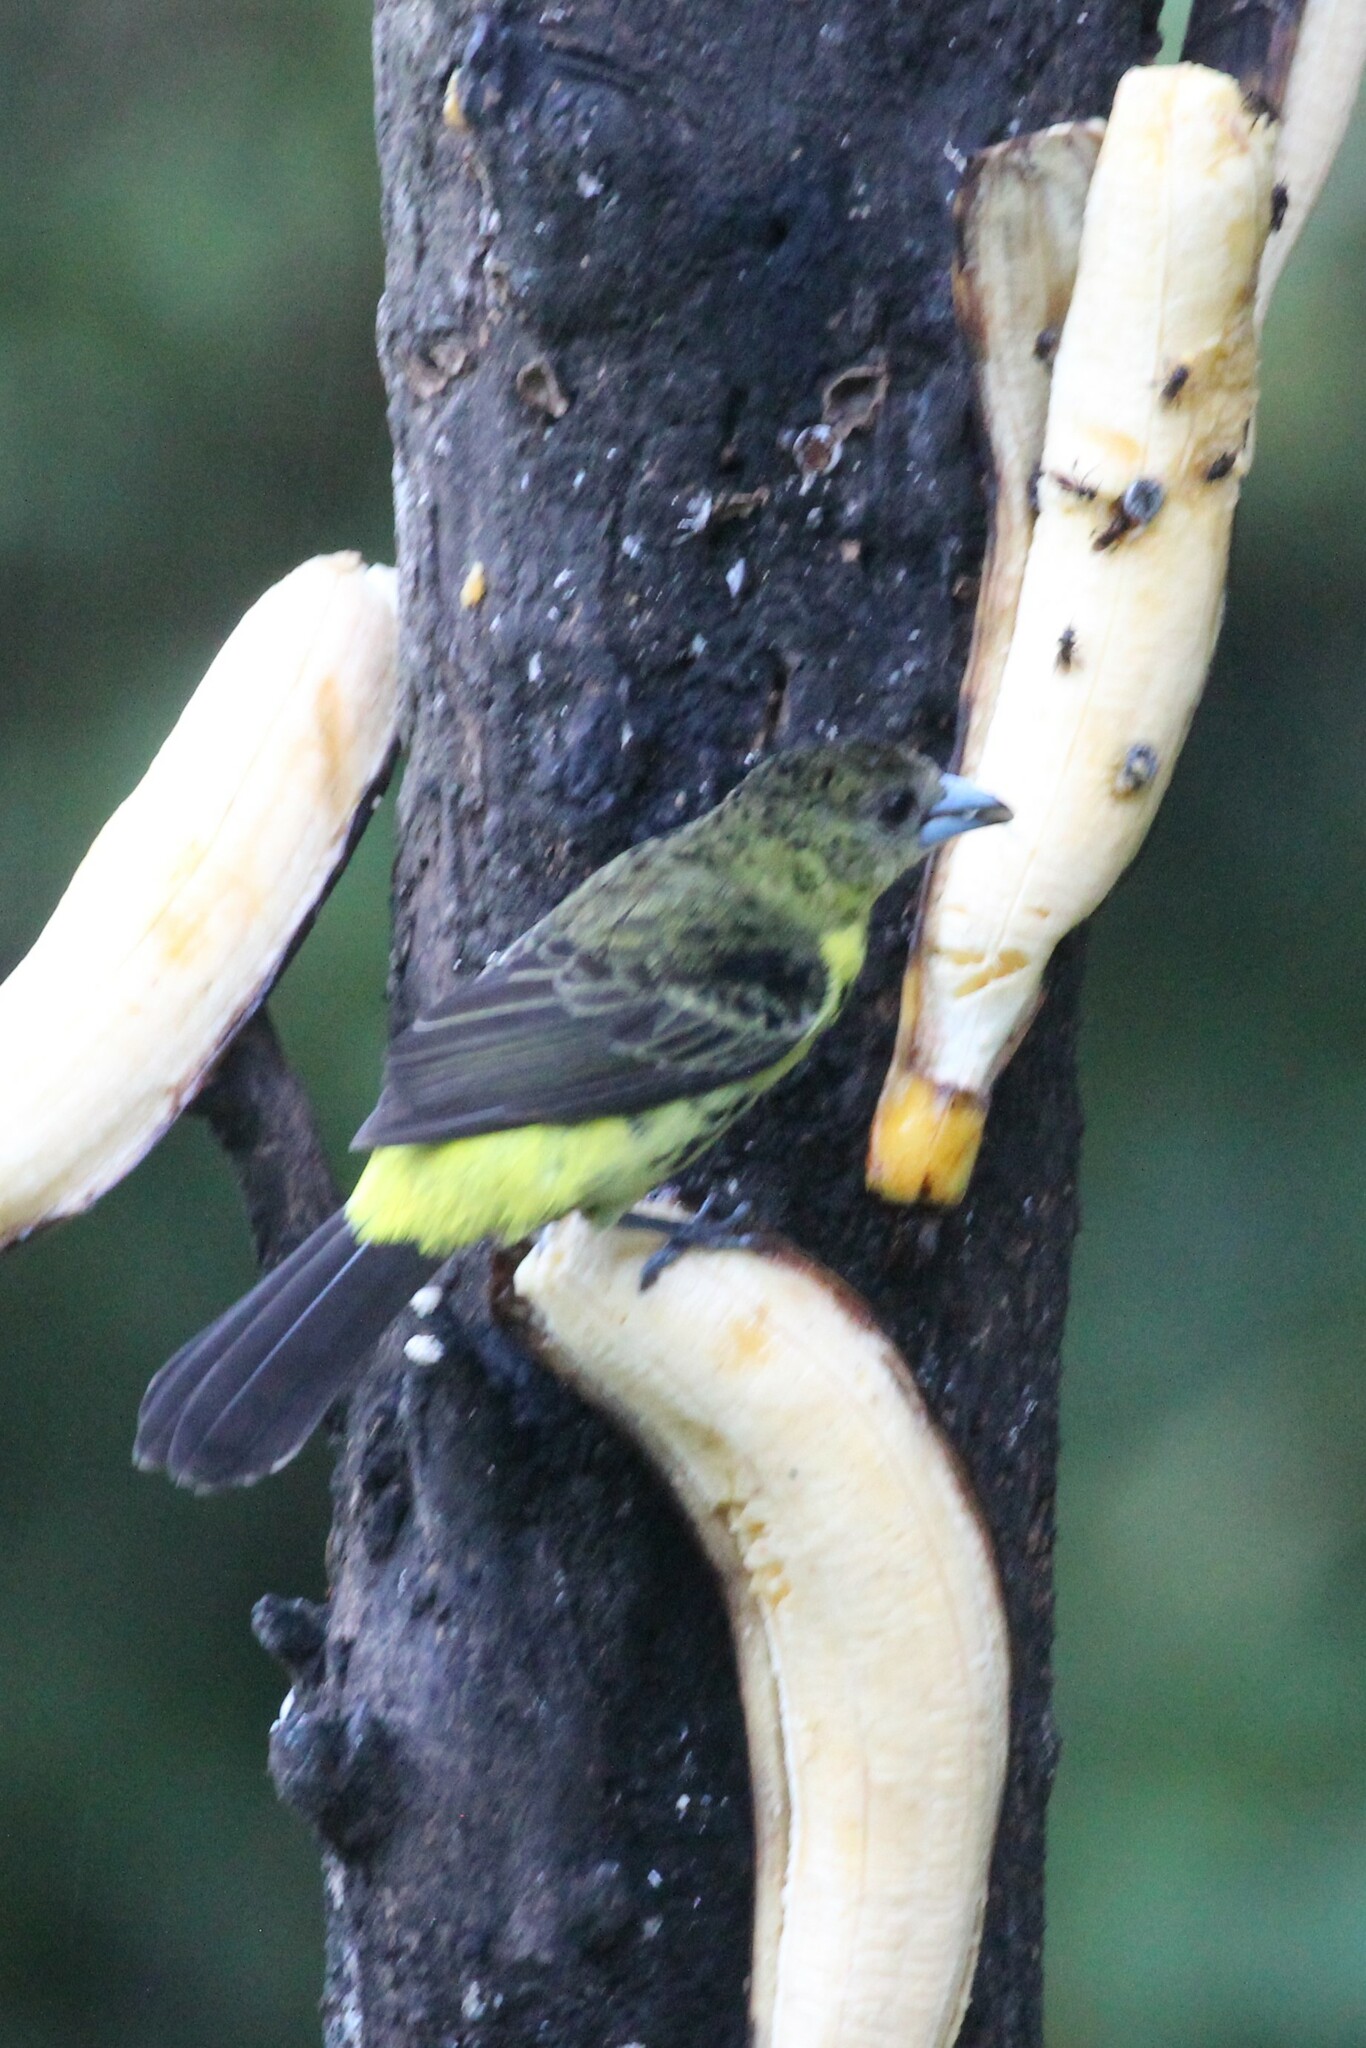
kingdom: Animalia
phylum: Chordata
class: Aves
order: Passeriformes
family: Thraupidae
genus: Ramphocelus
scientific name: Ramphocelus flammigerus
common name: Flame-rumped tanager
